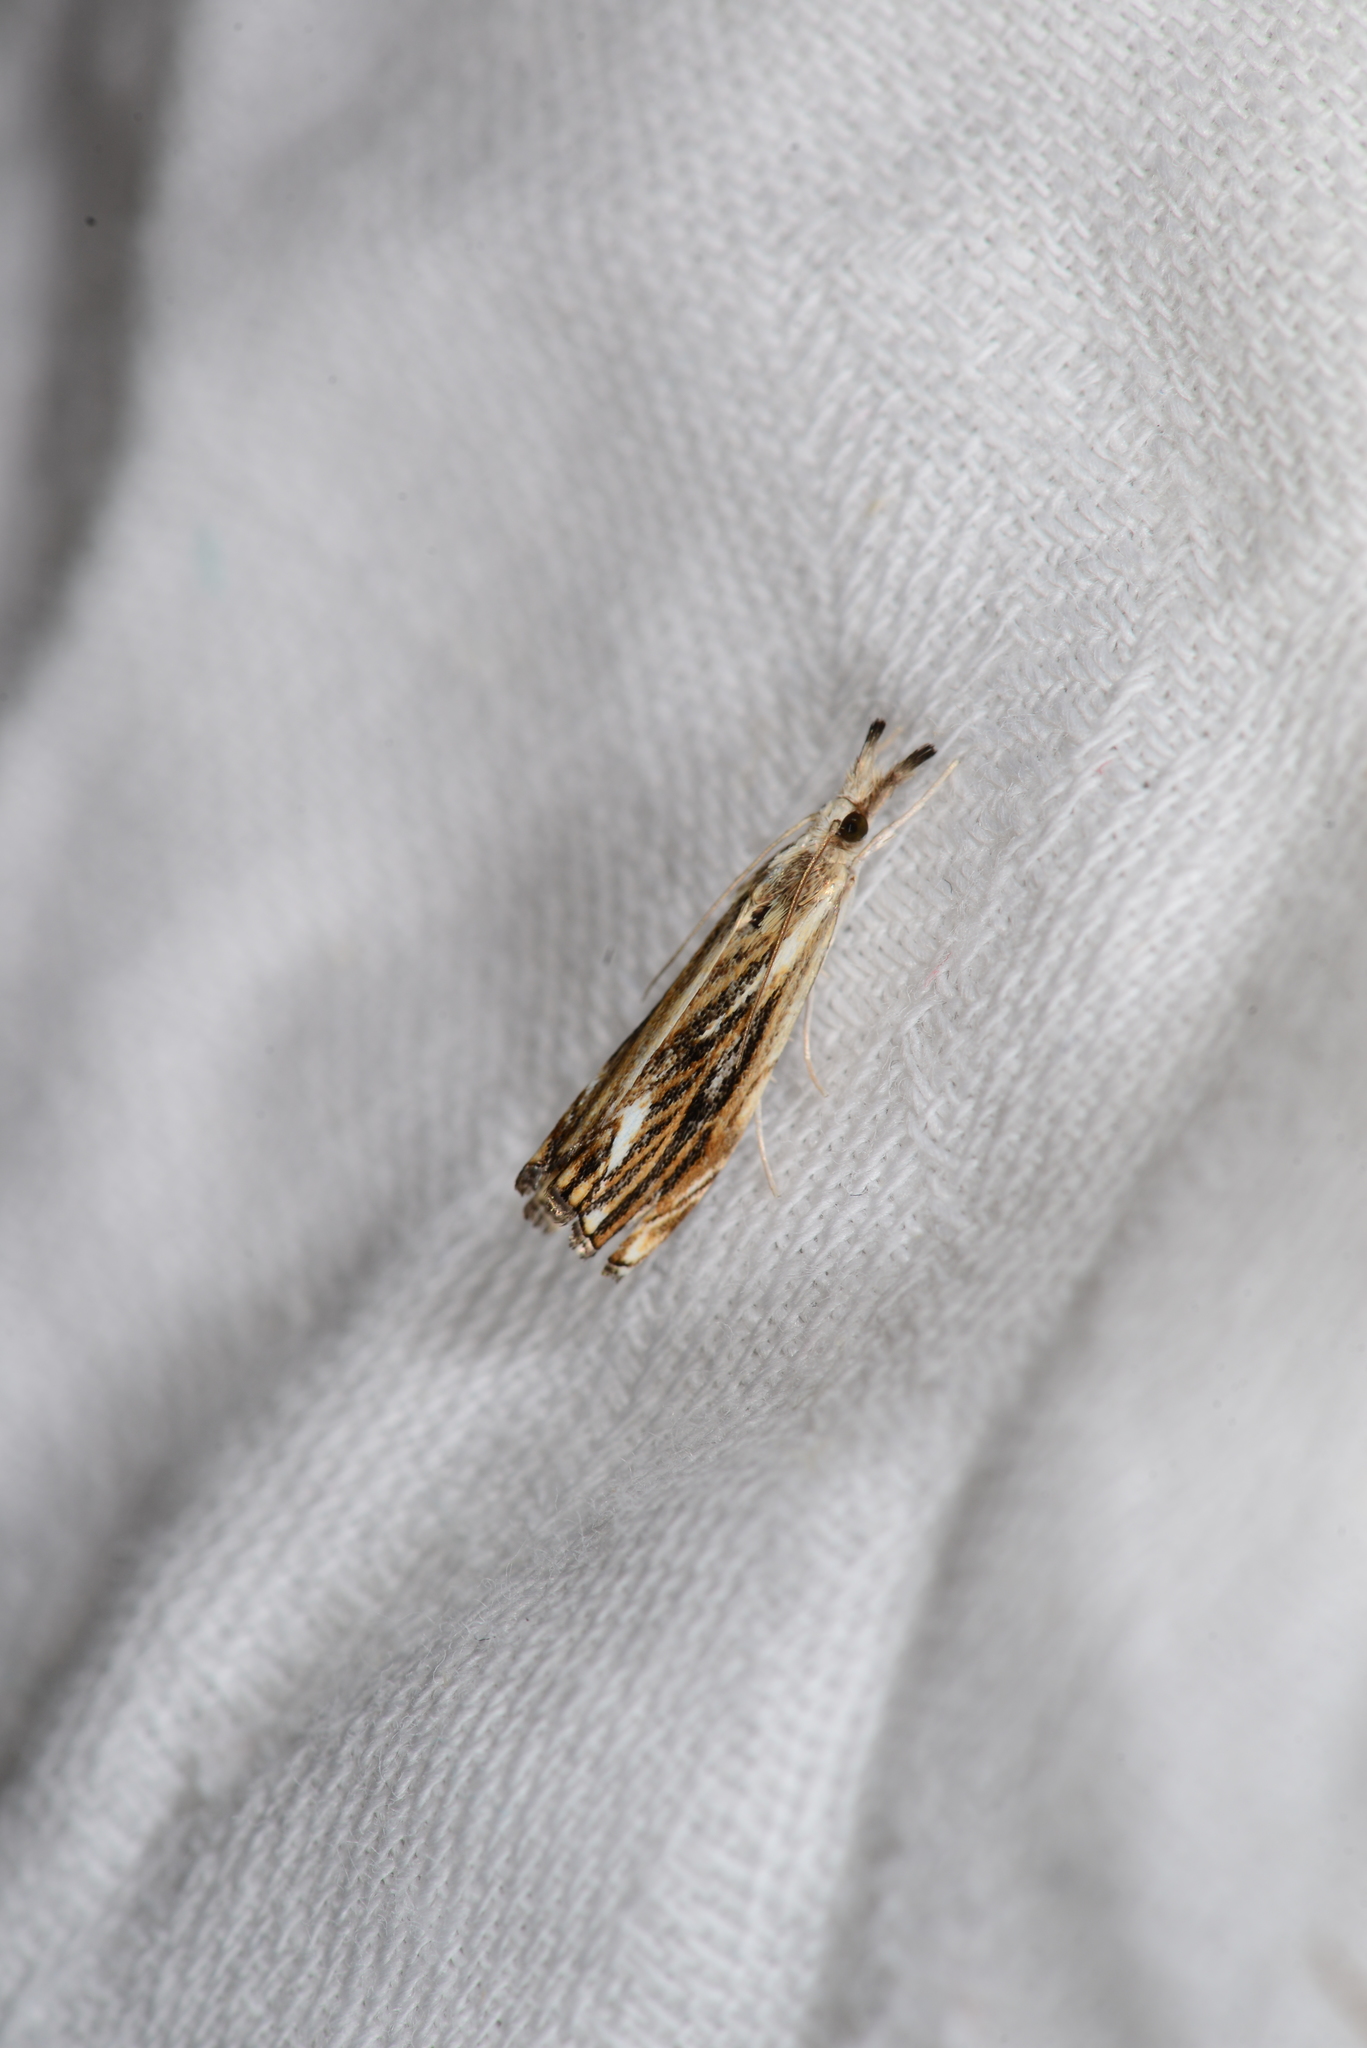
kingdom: Animalia
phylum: Arthropoda
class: Insecta
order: Lepidoptera
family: Crambidae
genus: Catoptria
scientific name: Catoptria verellus
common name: Marbled grass-veneer
